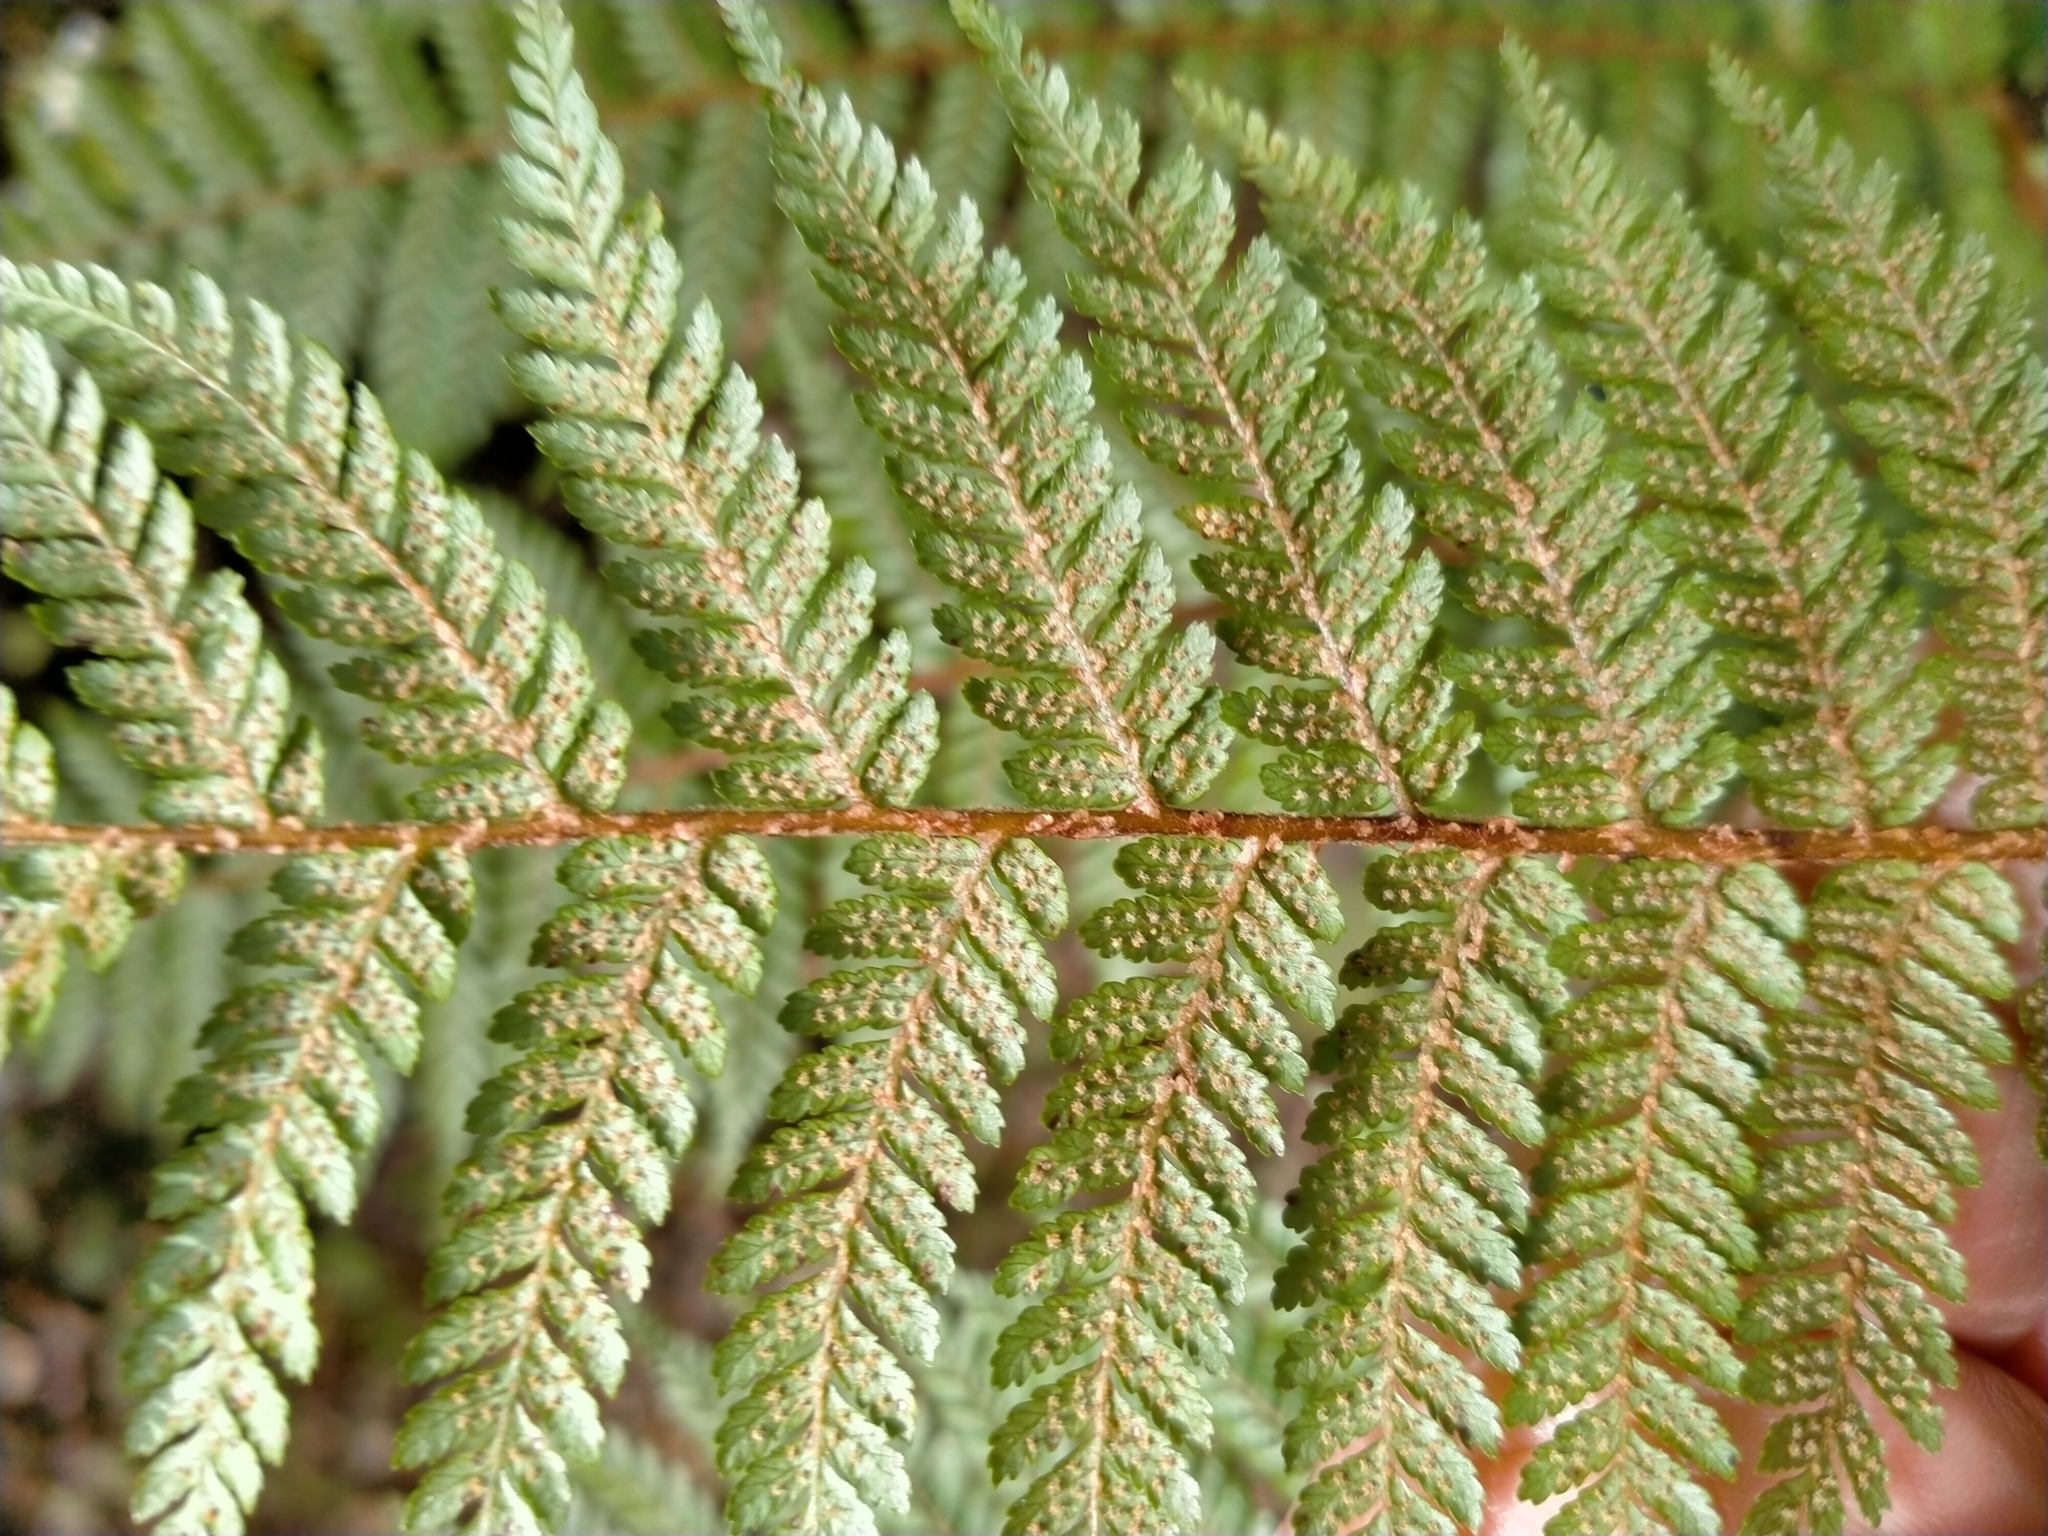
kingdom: Plantae
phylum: Tracheophyta
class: Polypodiopsida
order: Cyatheales
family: Cyatheaceae
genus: Alsophila
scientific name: Alsophila colensoi
